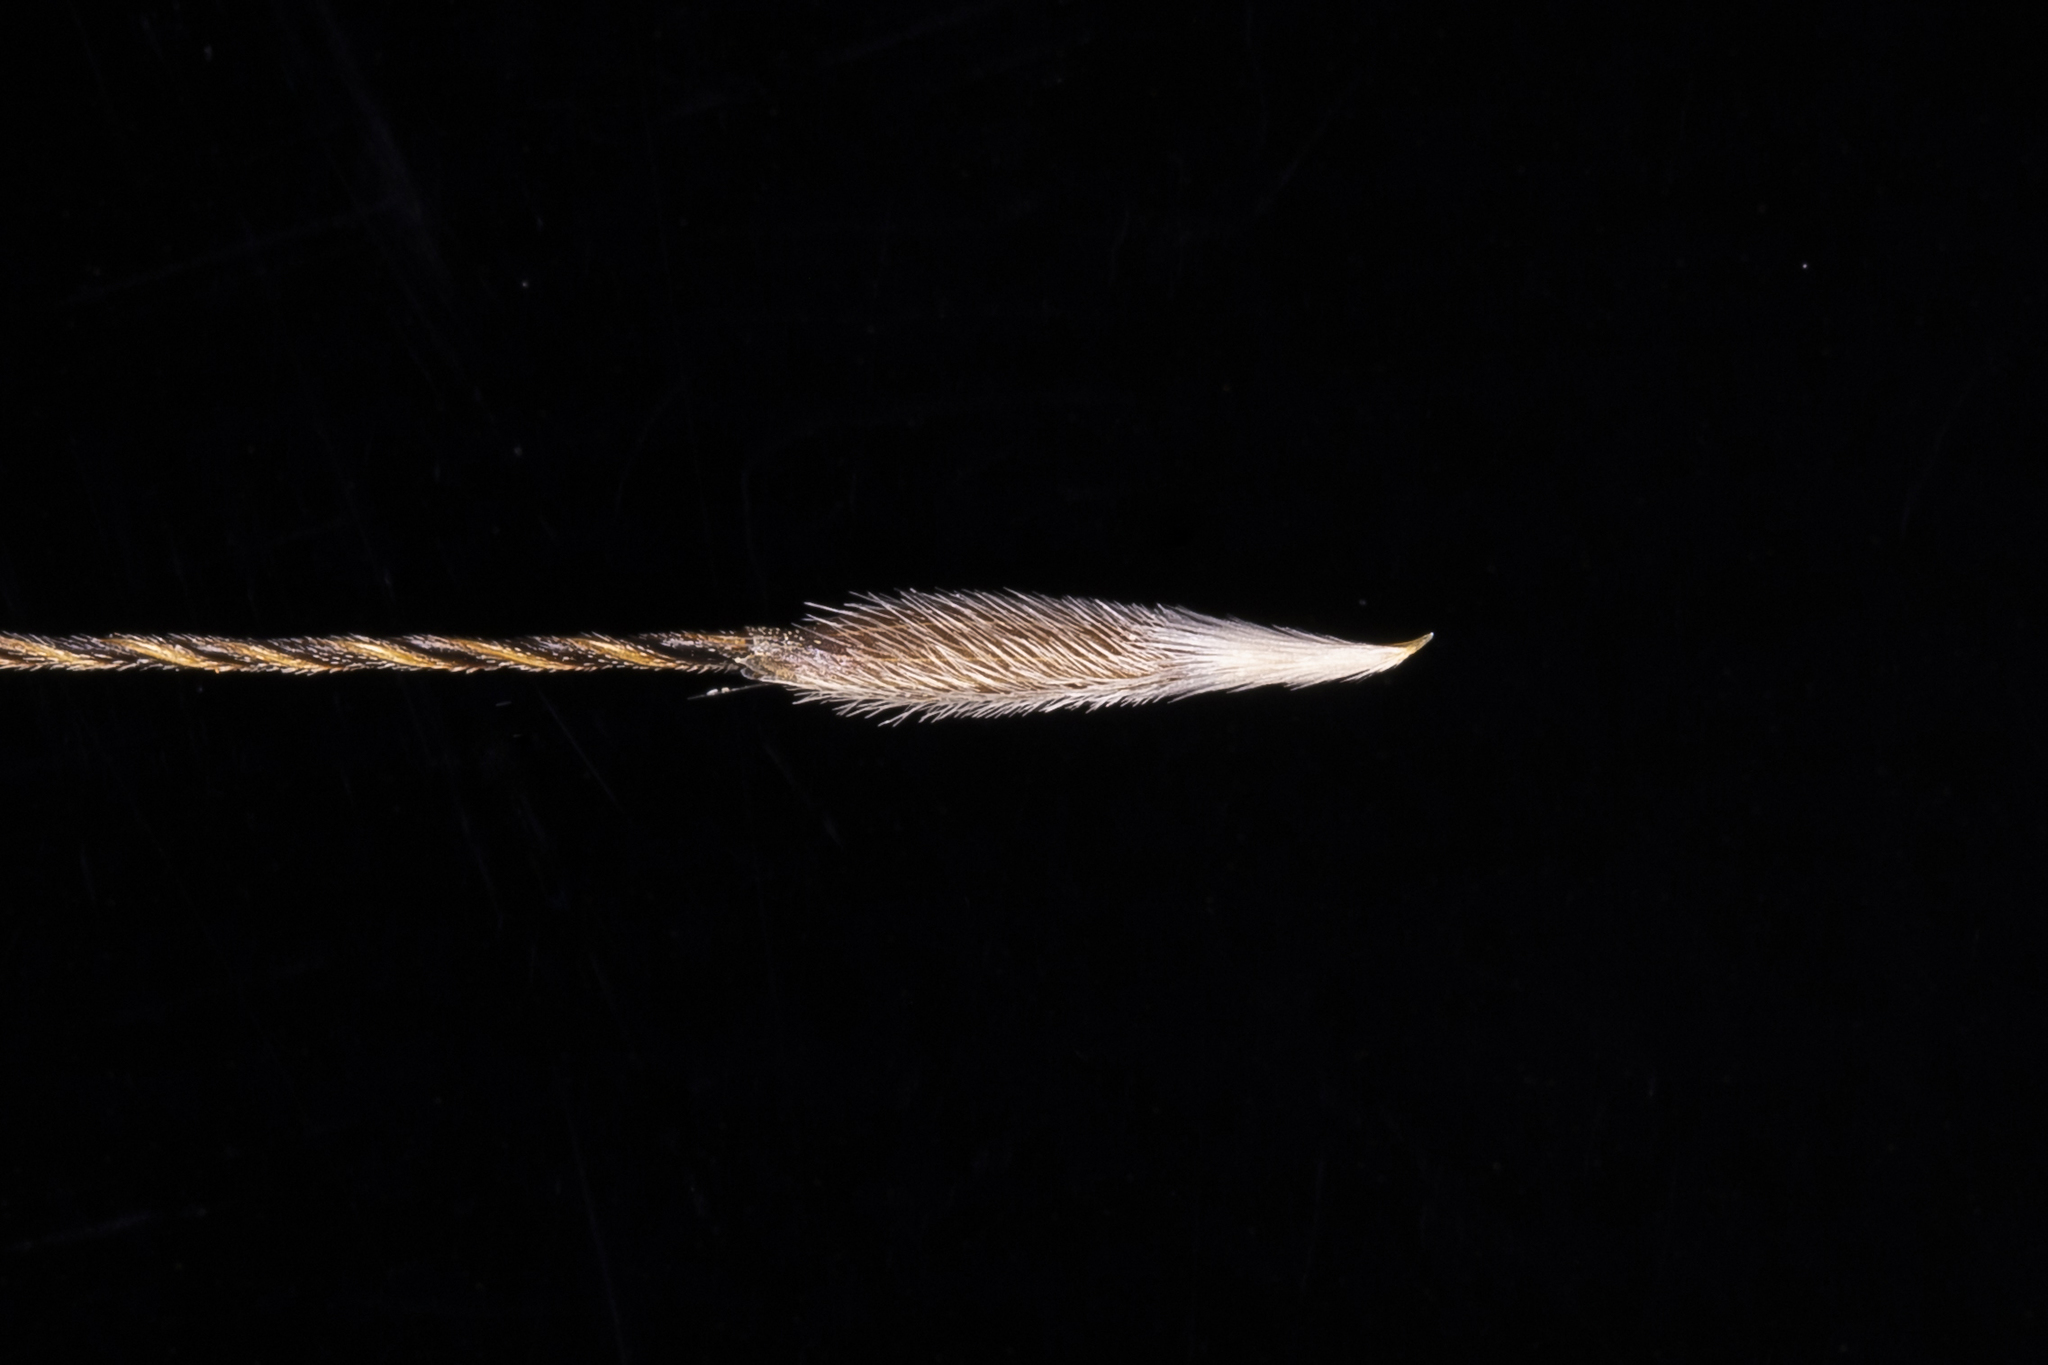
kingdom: Plantae
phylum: Tracheophyta
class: Liliopsida
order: Poales
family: Poaceae
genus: Austrostipa
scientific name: Austrostipa nitida
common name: Balcarra grass
